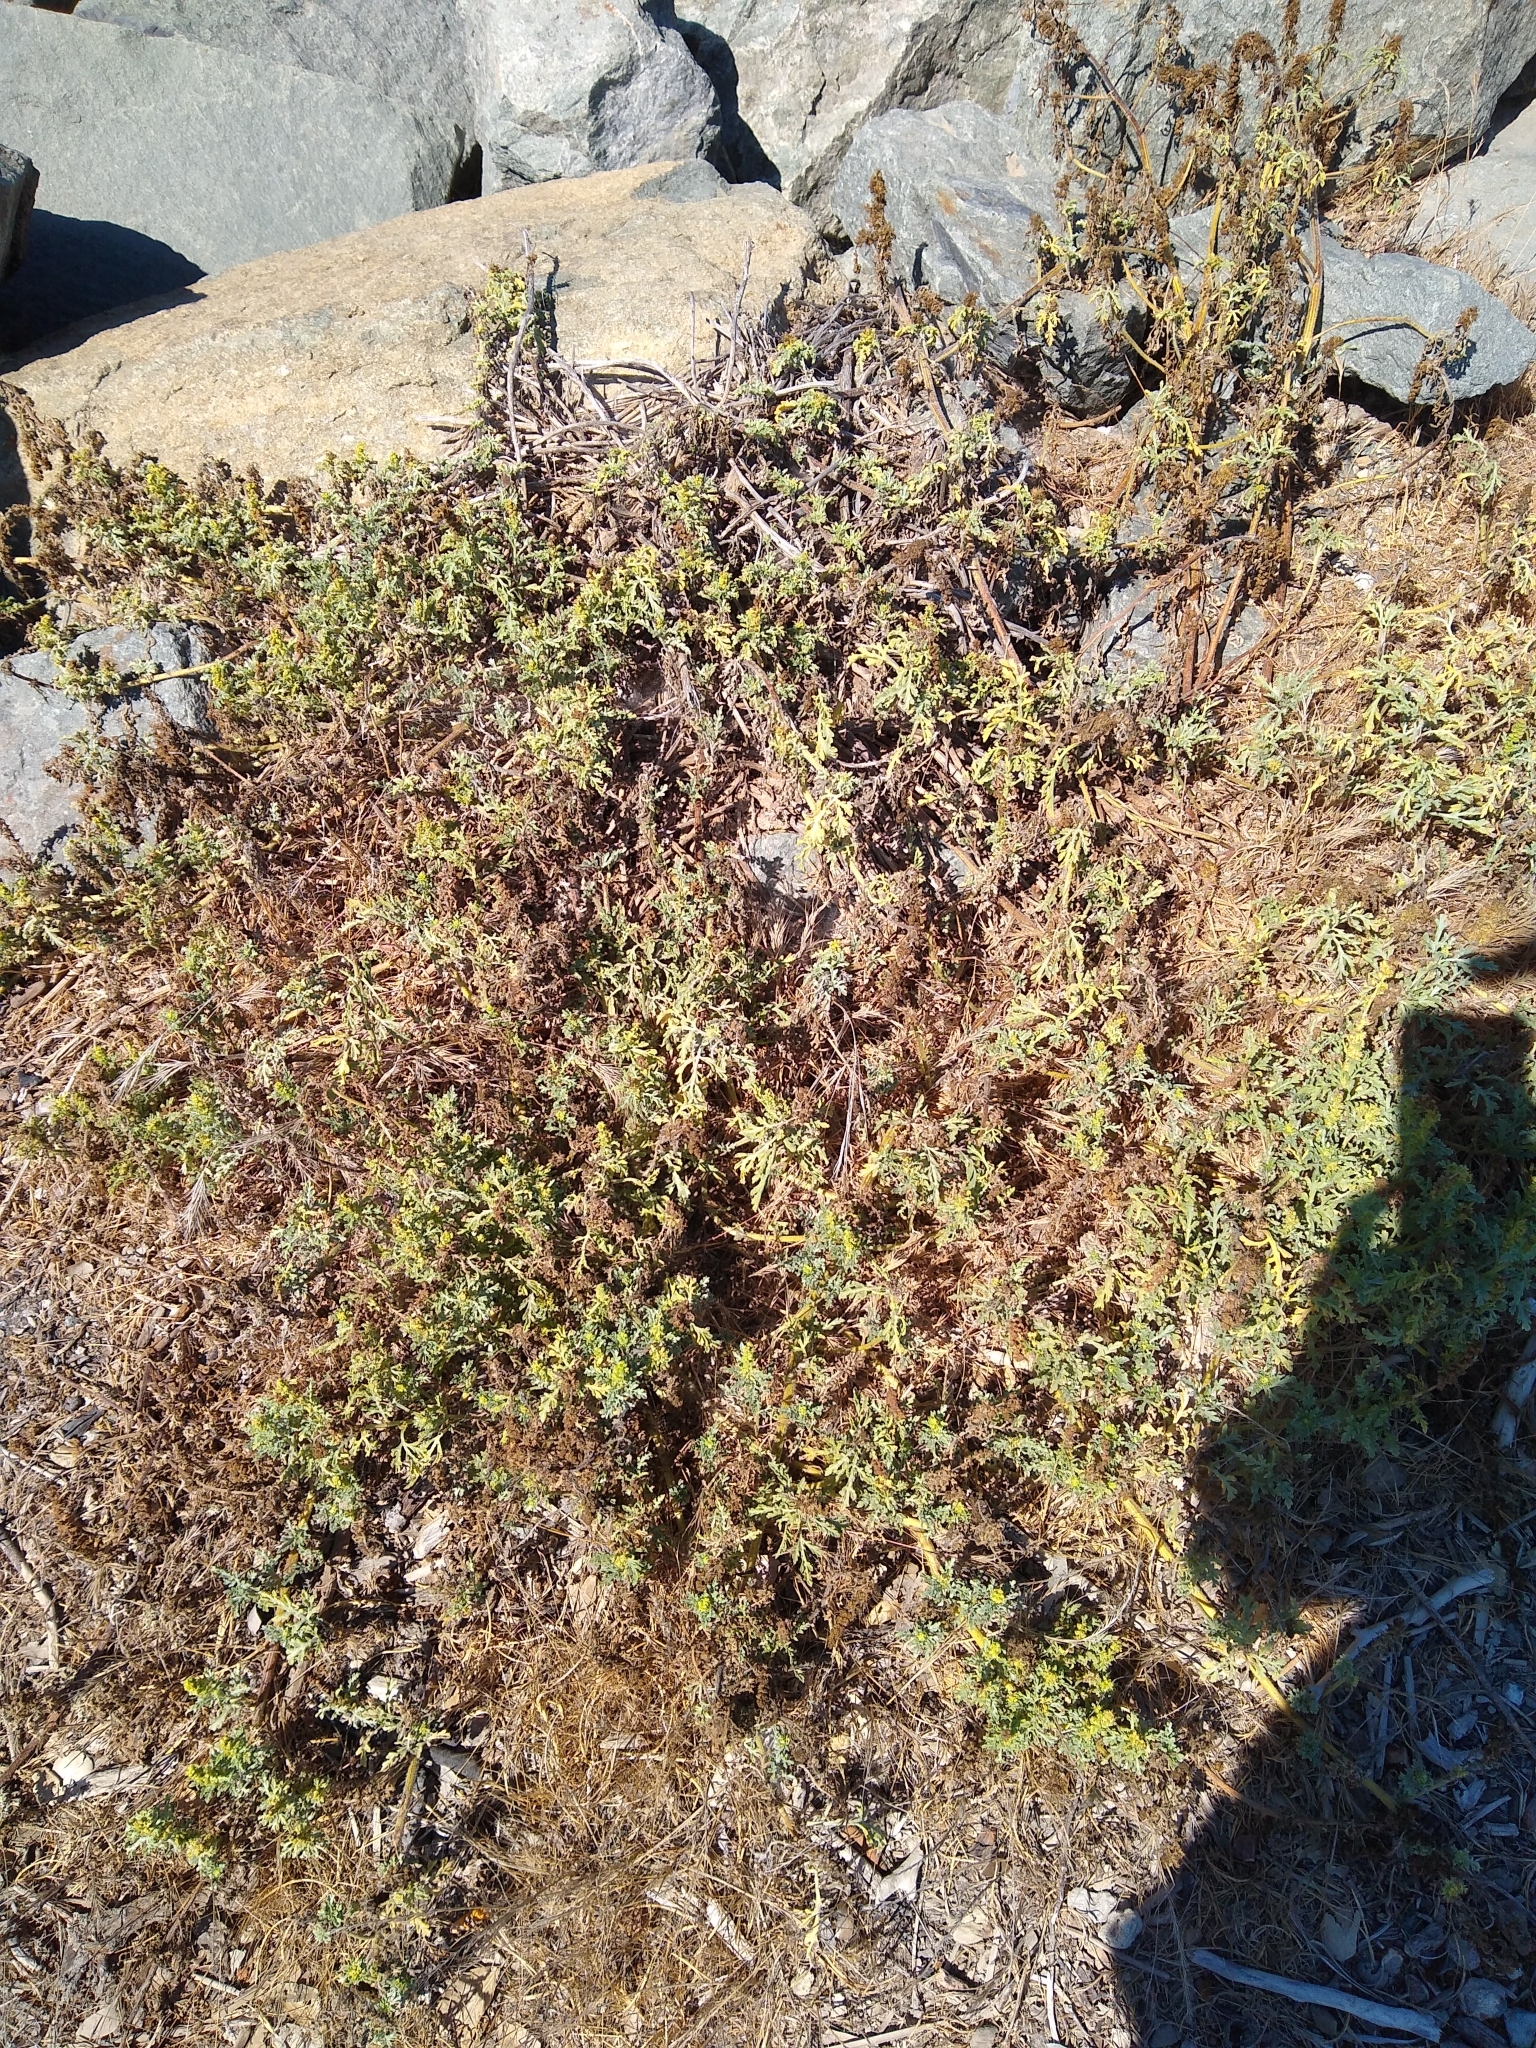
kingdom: Plantae
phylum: Tracheophyta
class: Magnoliopsida
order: Asterales
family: Asteraceae
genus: Ambrosia
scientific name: Ambrosia chamissonis
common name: Beachbur
